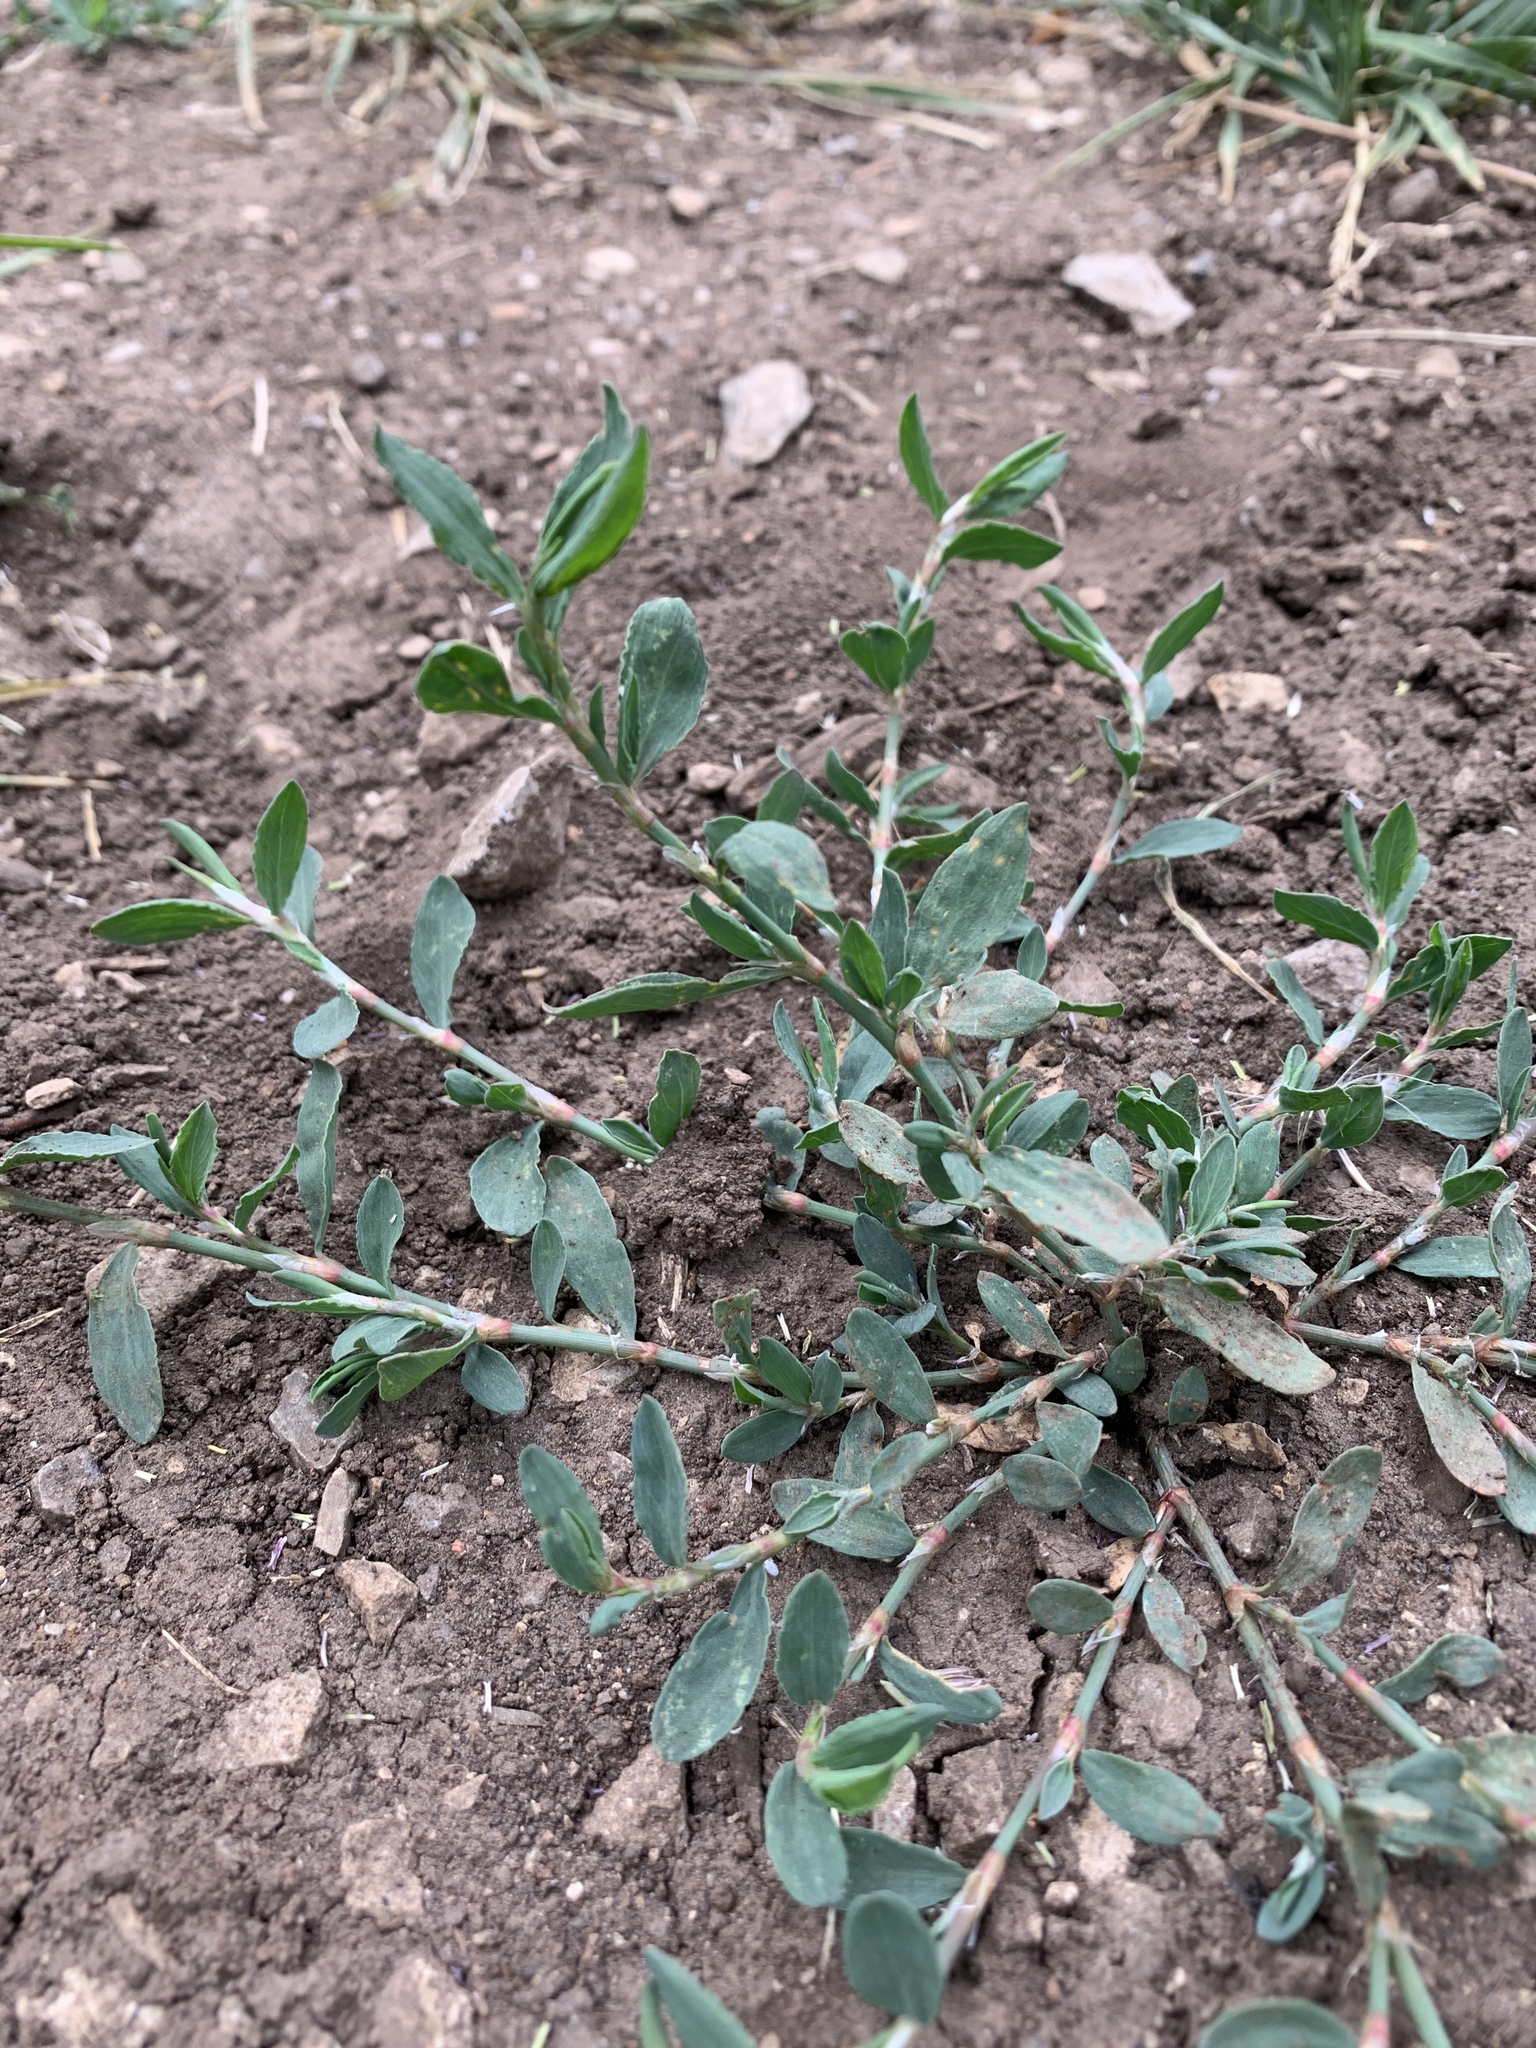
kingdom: Plantae
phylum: Tracheophyta
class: Magnoliopsida
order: Caryophyllales
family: Polygonaceae
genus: Polygonum
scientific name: Polygonum aviculare
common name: Prostrate knotweed
